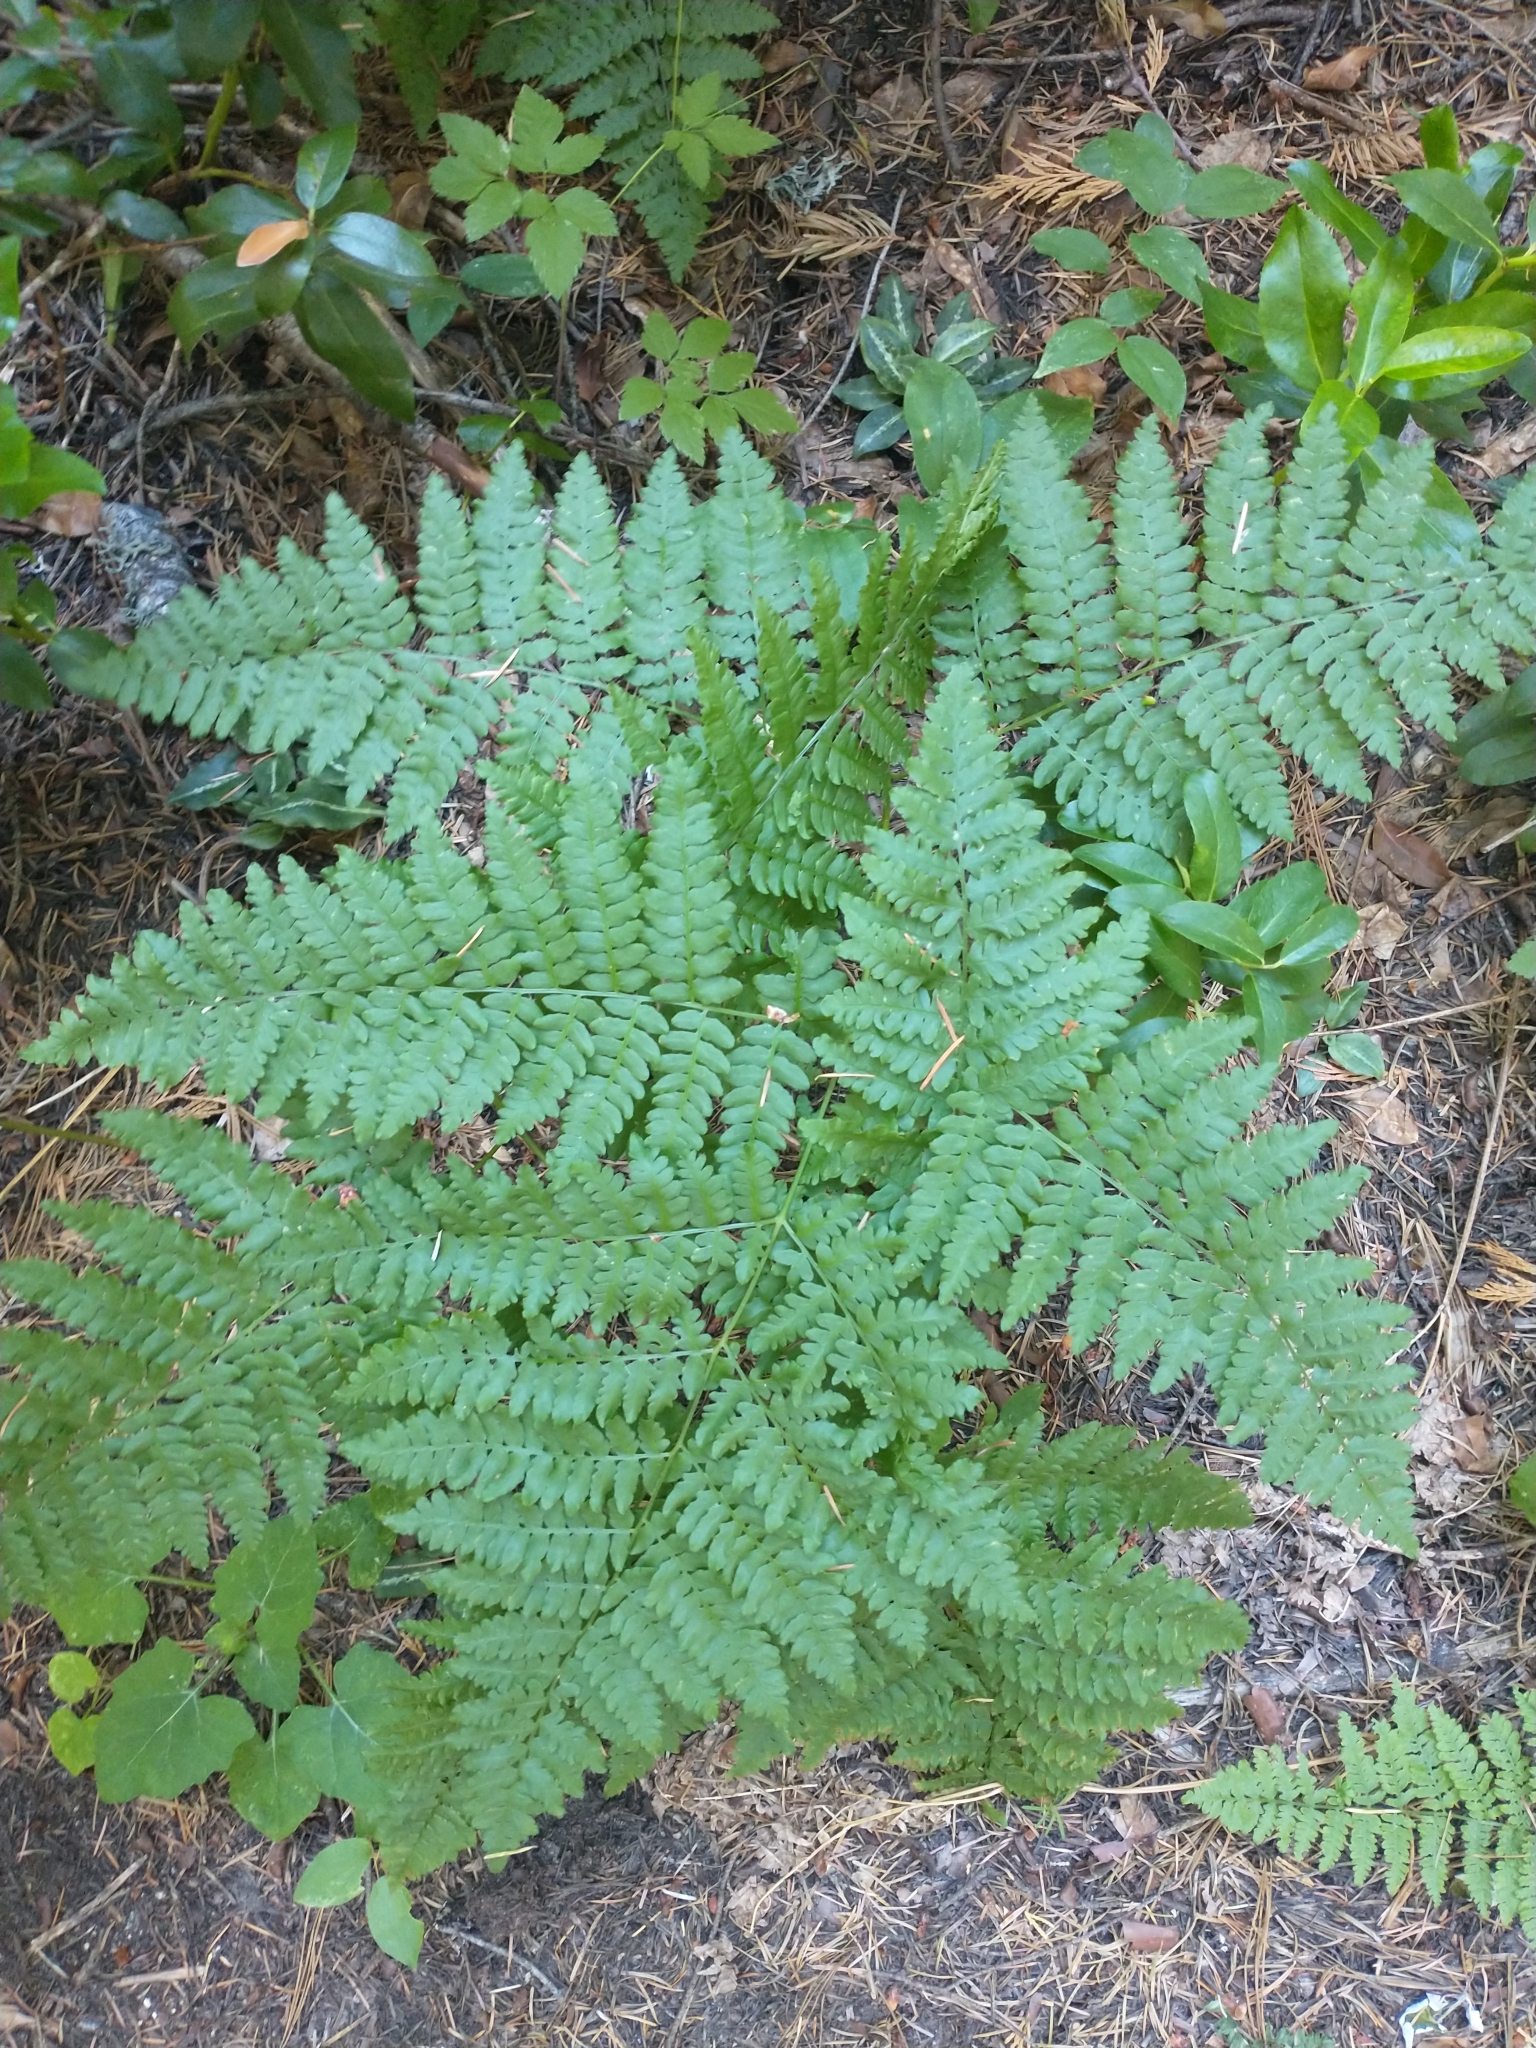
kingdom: Plantae
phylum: Tracheophyta
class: Polypodiopsida
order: Polypodiales
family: Dennstaedtiaceae
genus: Pteridium
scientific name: Pteridium aquilinum
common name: Bracken
